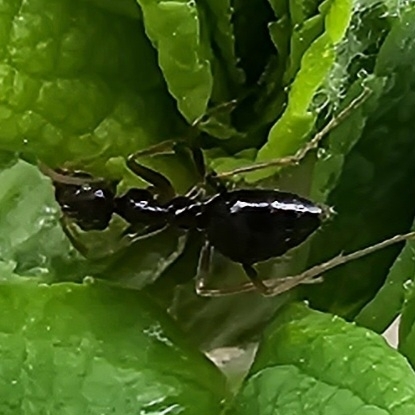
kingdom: Animalia
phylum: Arthropoda
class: Insecta
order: Hymenoptera
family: Formicidae
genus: Prenolepis
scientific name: Prenolepis imparis
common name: Small honey ant
